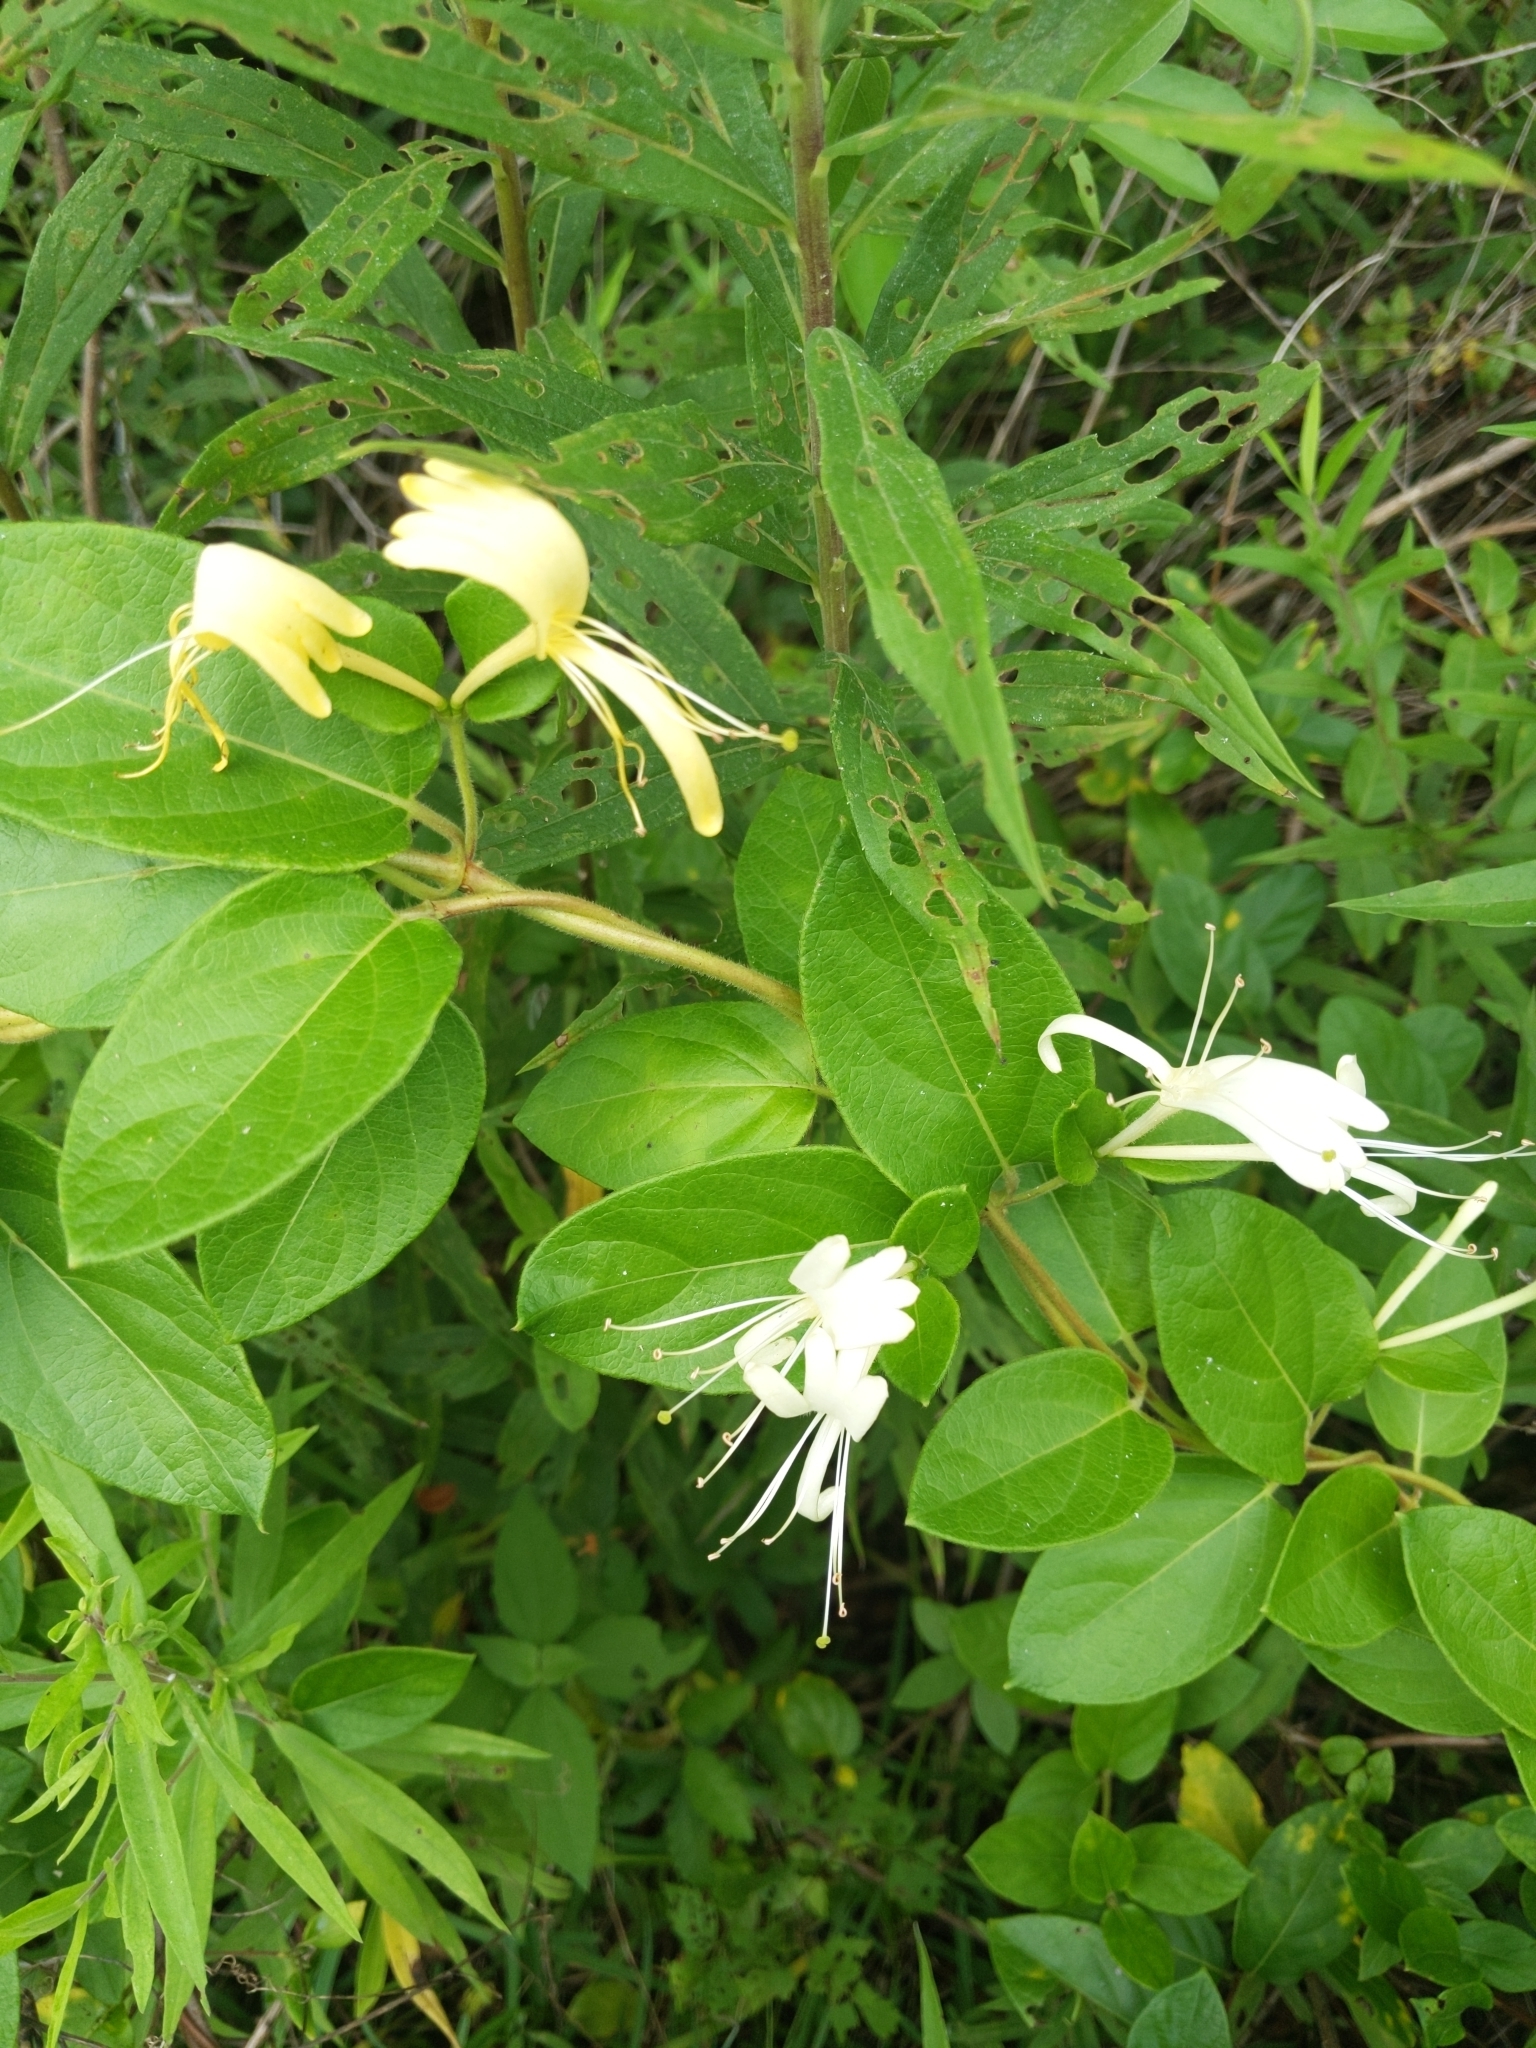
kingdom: Plantae
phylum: Tracheophyta
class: Magnoliopsida
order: Dipsacales
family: Caprifoliaceae
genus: Lonicera
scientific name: Lonicera japonica
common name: Japanese honeysuckle
